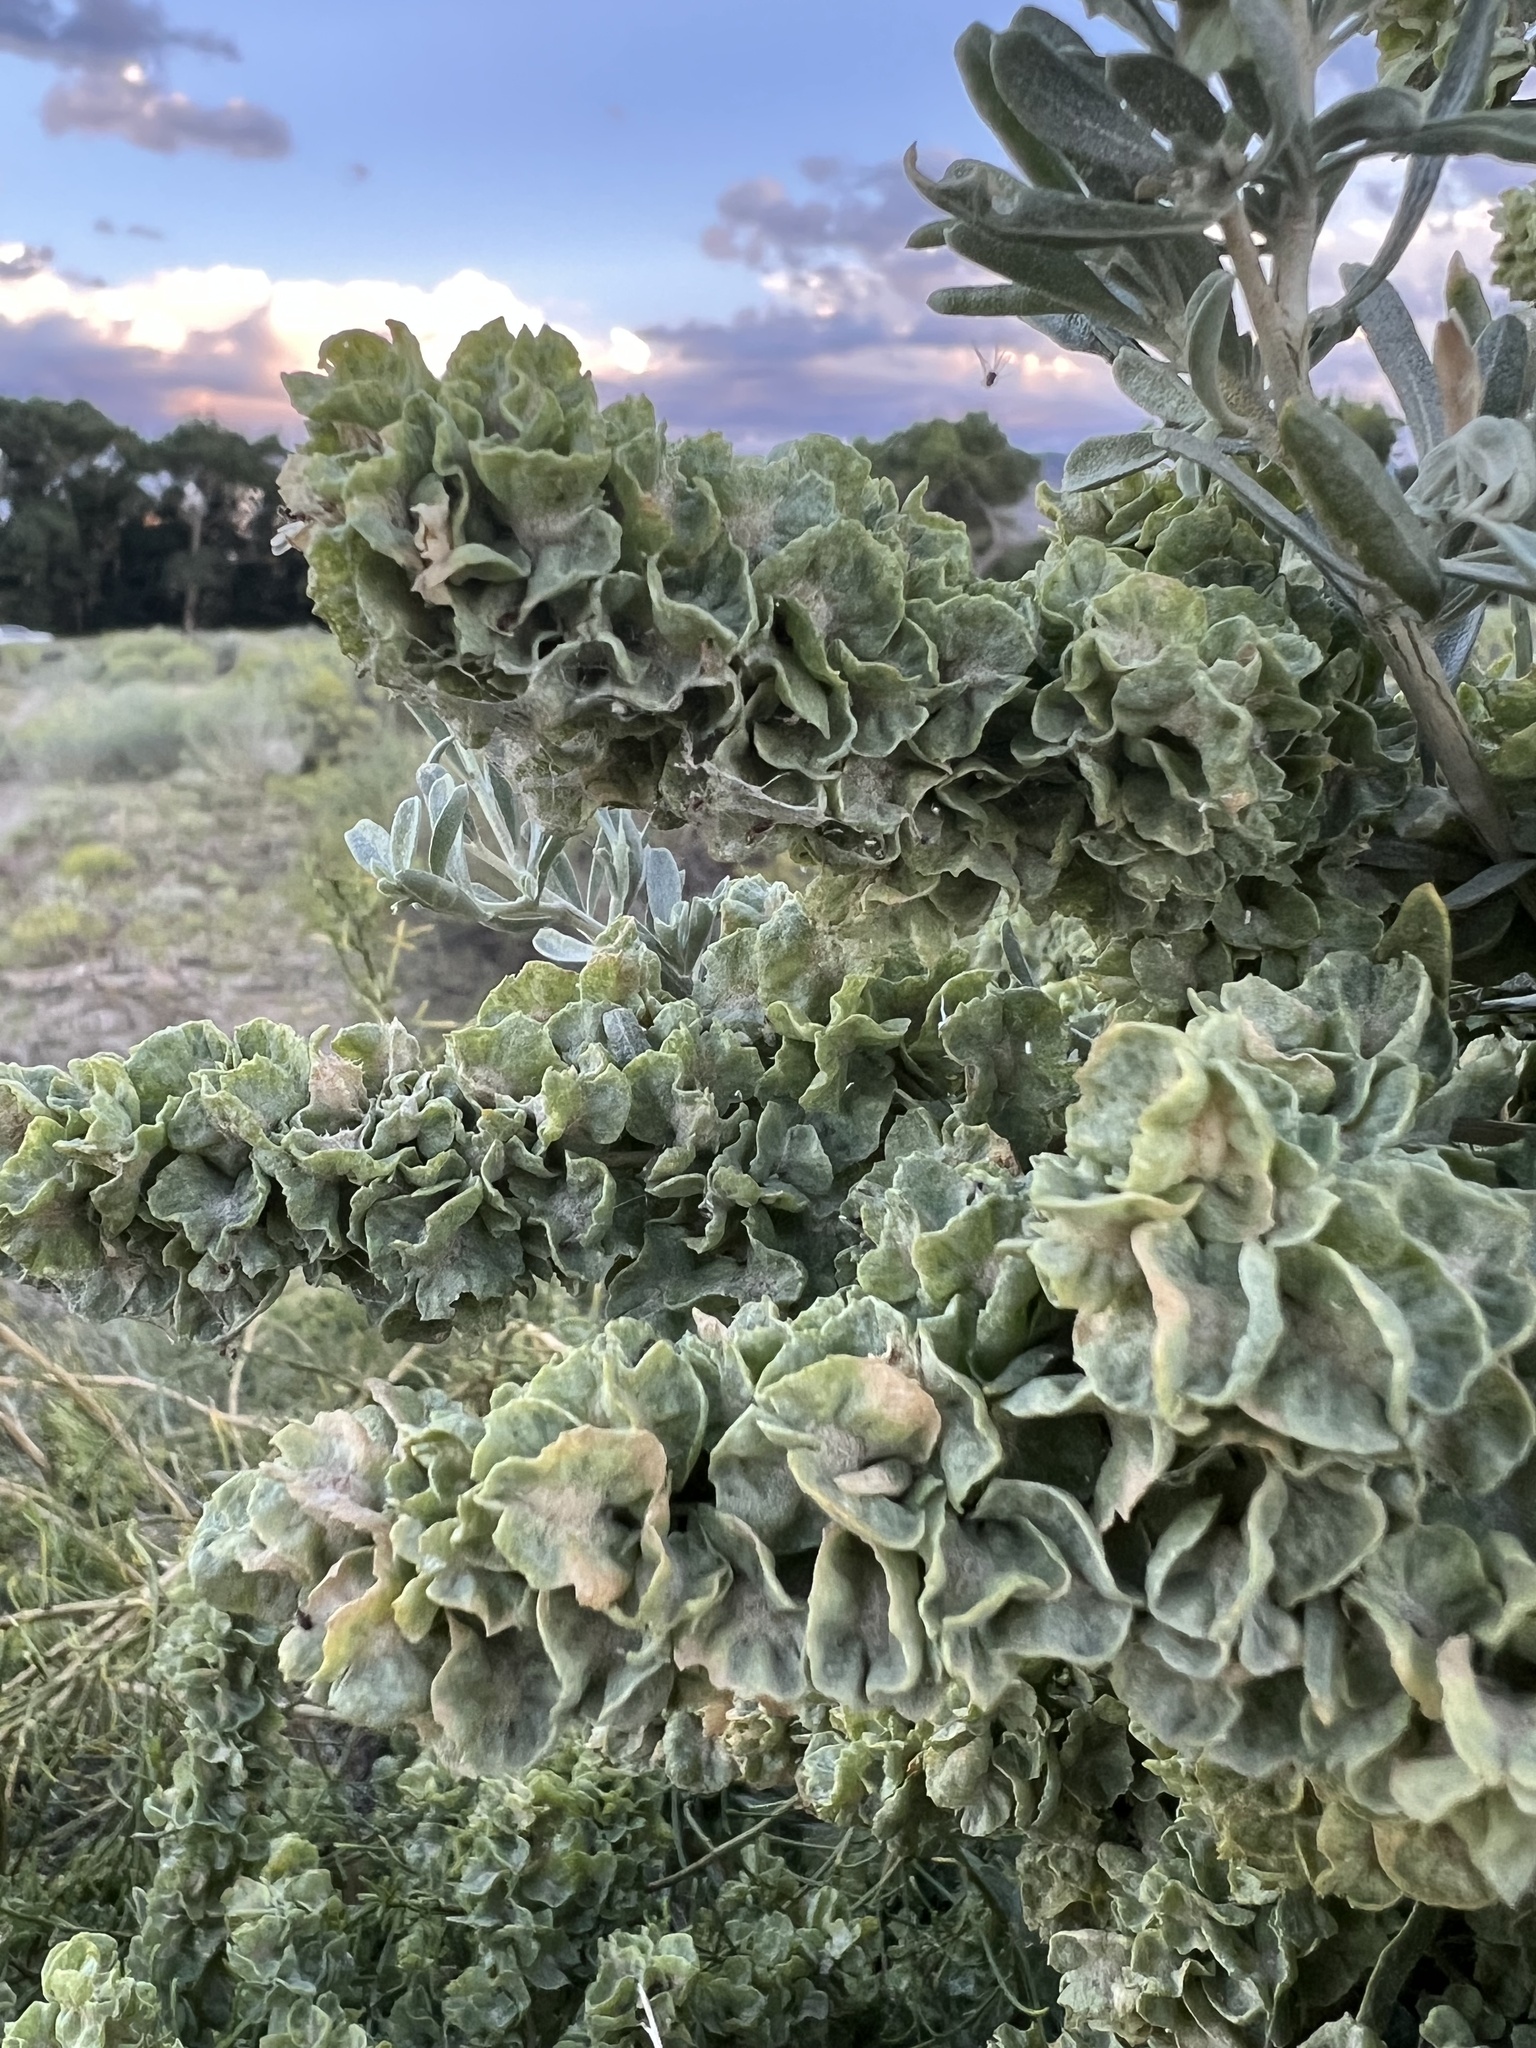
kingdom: Plantae
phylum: Tracheophyta
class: Magnoliopsida
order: Caryophyllales
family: Amaranthaceae
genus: Atriplex
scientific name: Atriplex canescens
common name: Four-wing saltbush
